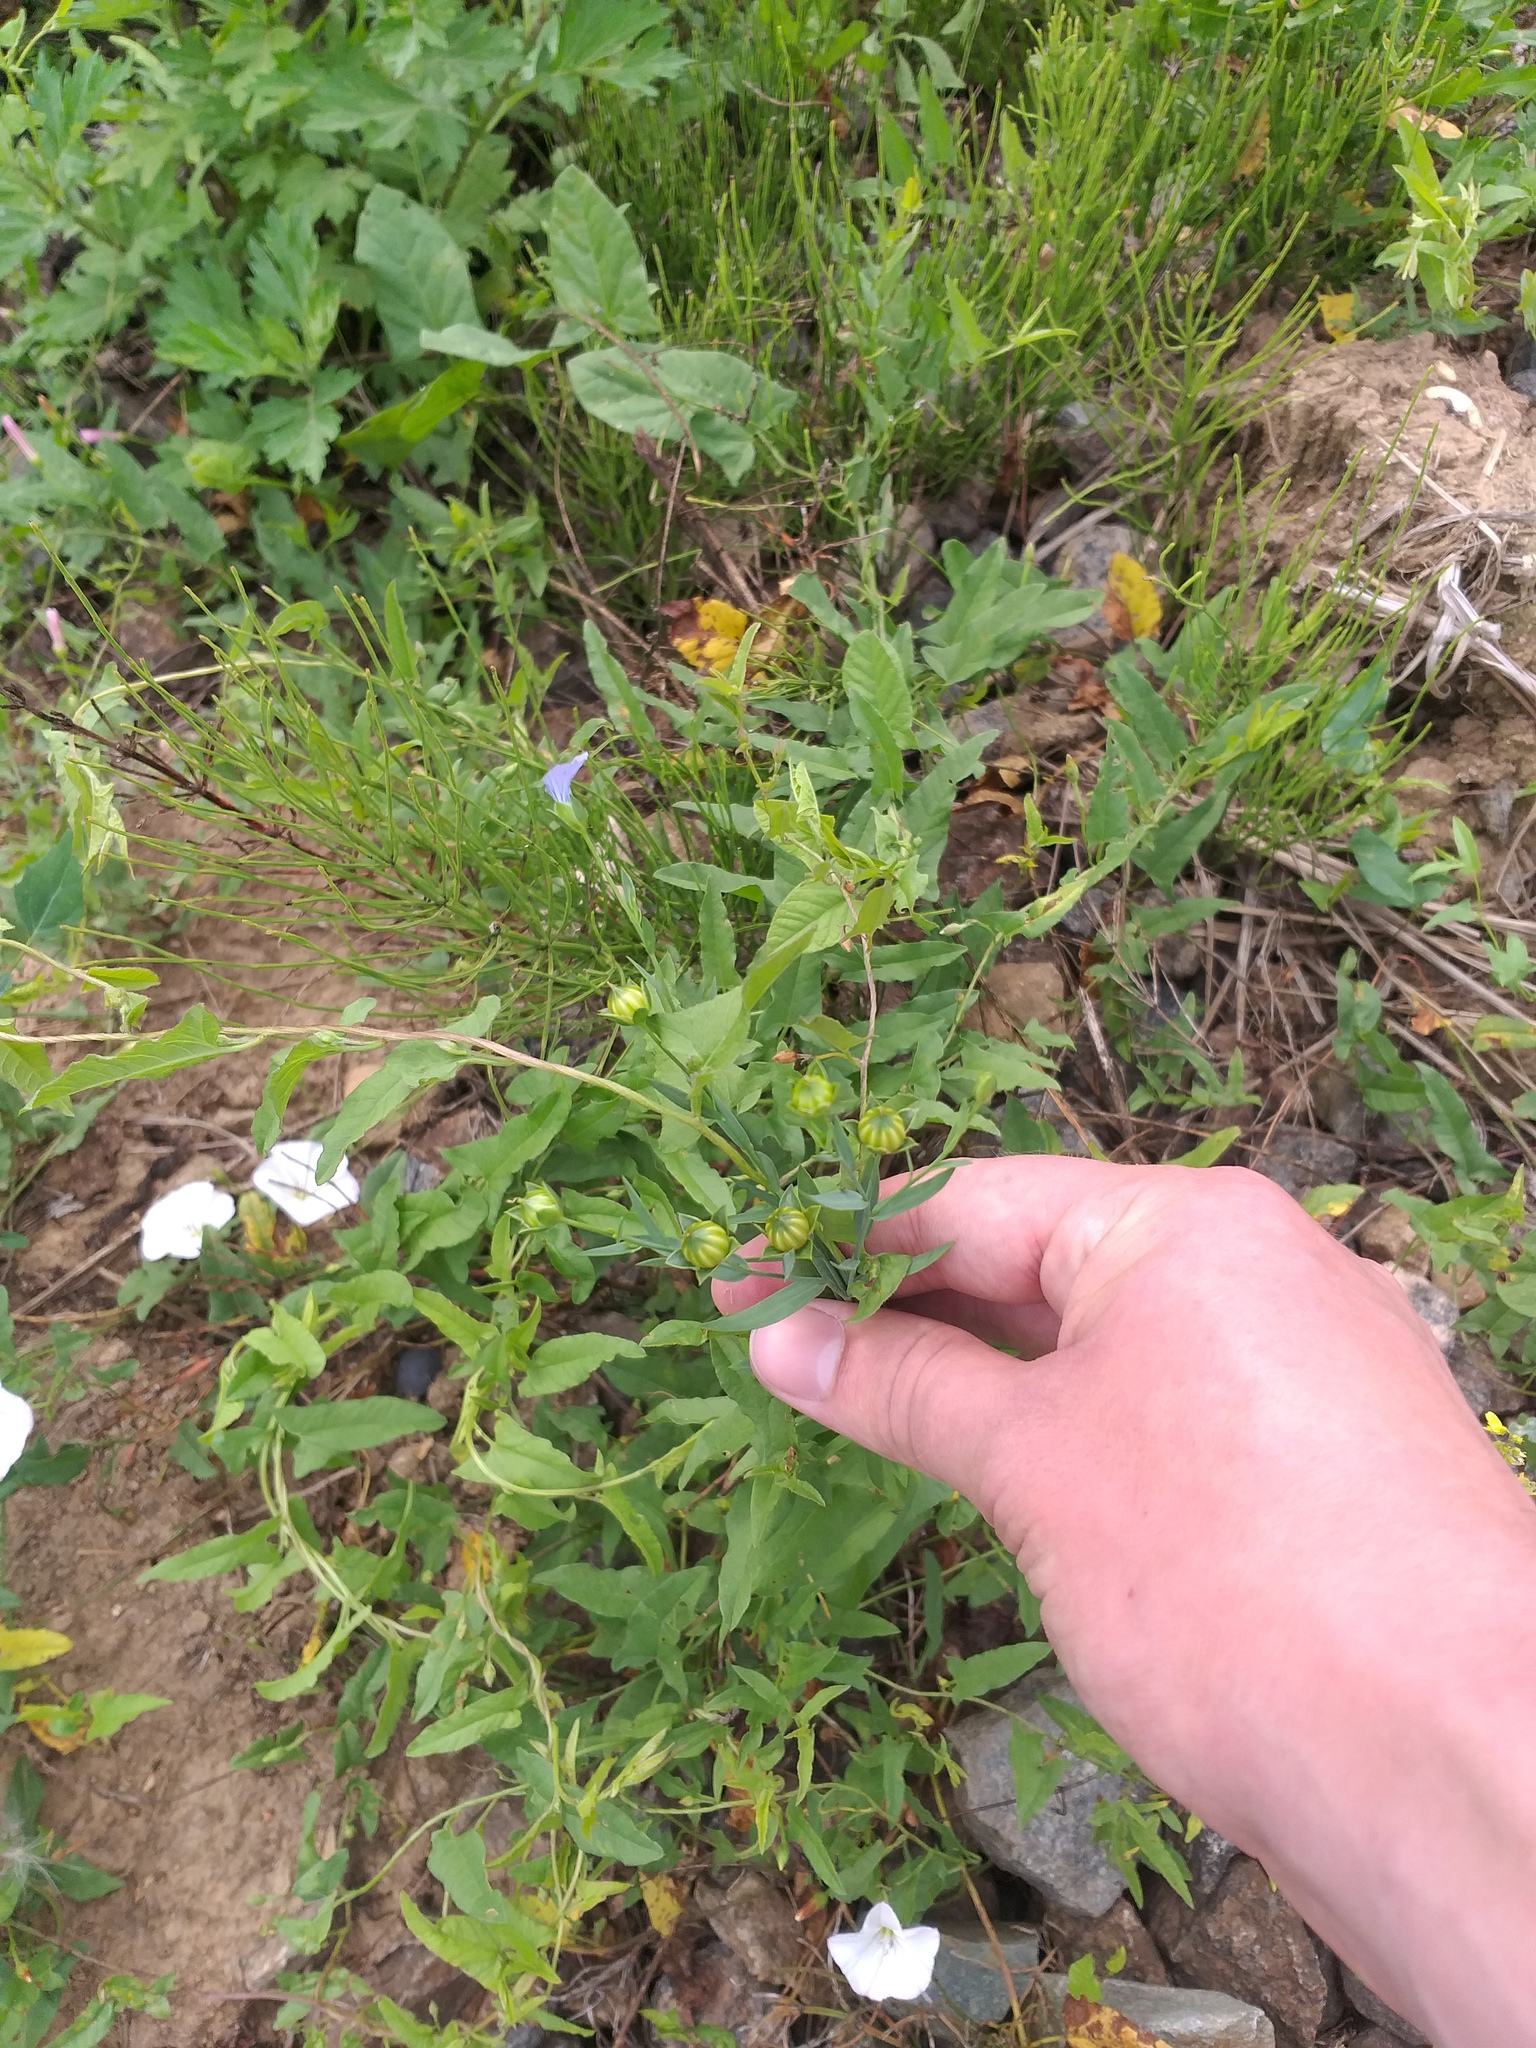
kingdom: Plantae
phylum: Tracheophyta
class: Magnoliopsida
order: Malpighiales
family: Linaceae
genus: Linum
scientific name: Linum usitatissimum
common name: Flax
